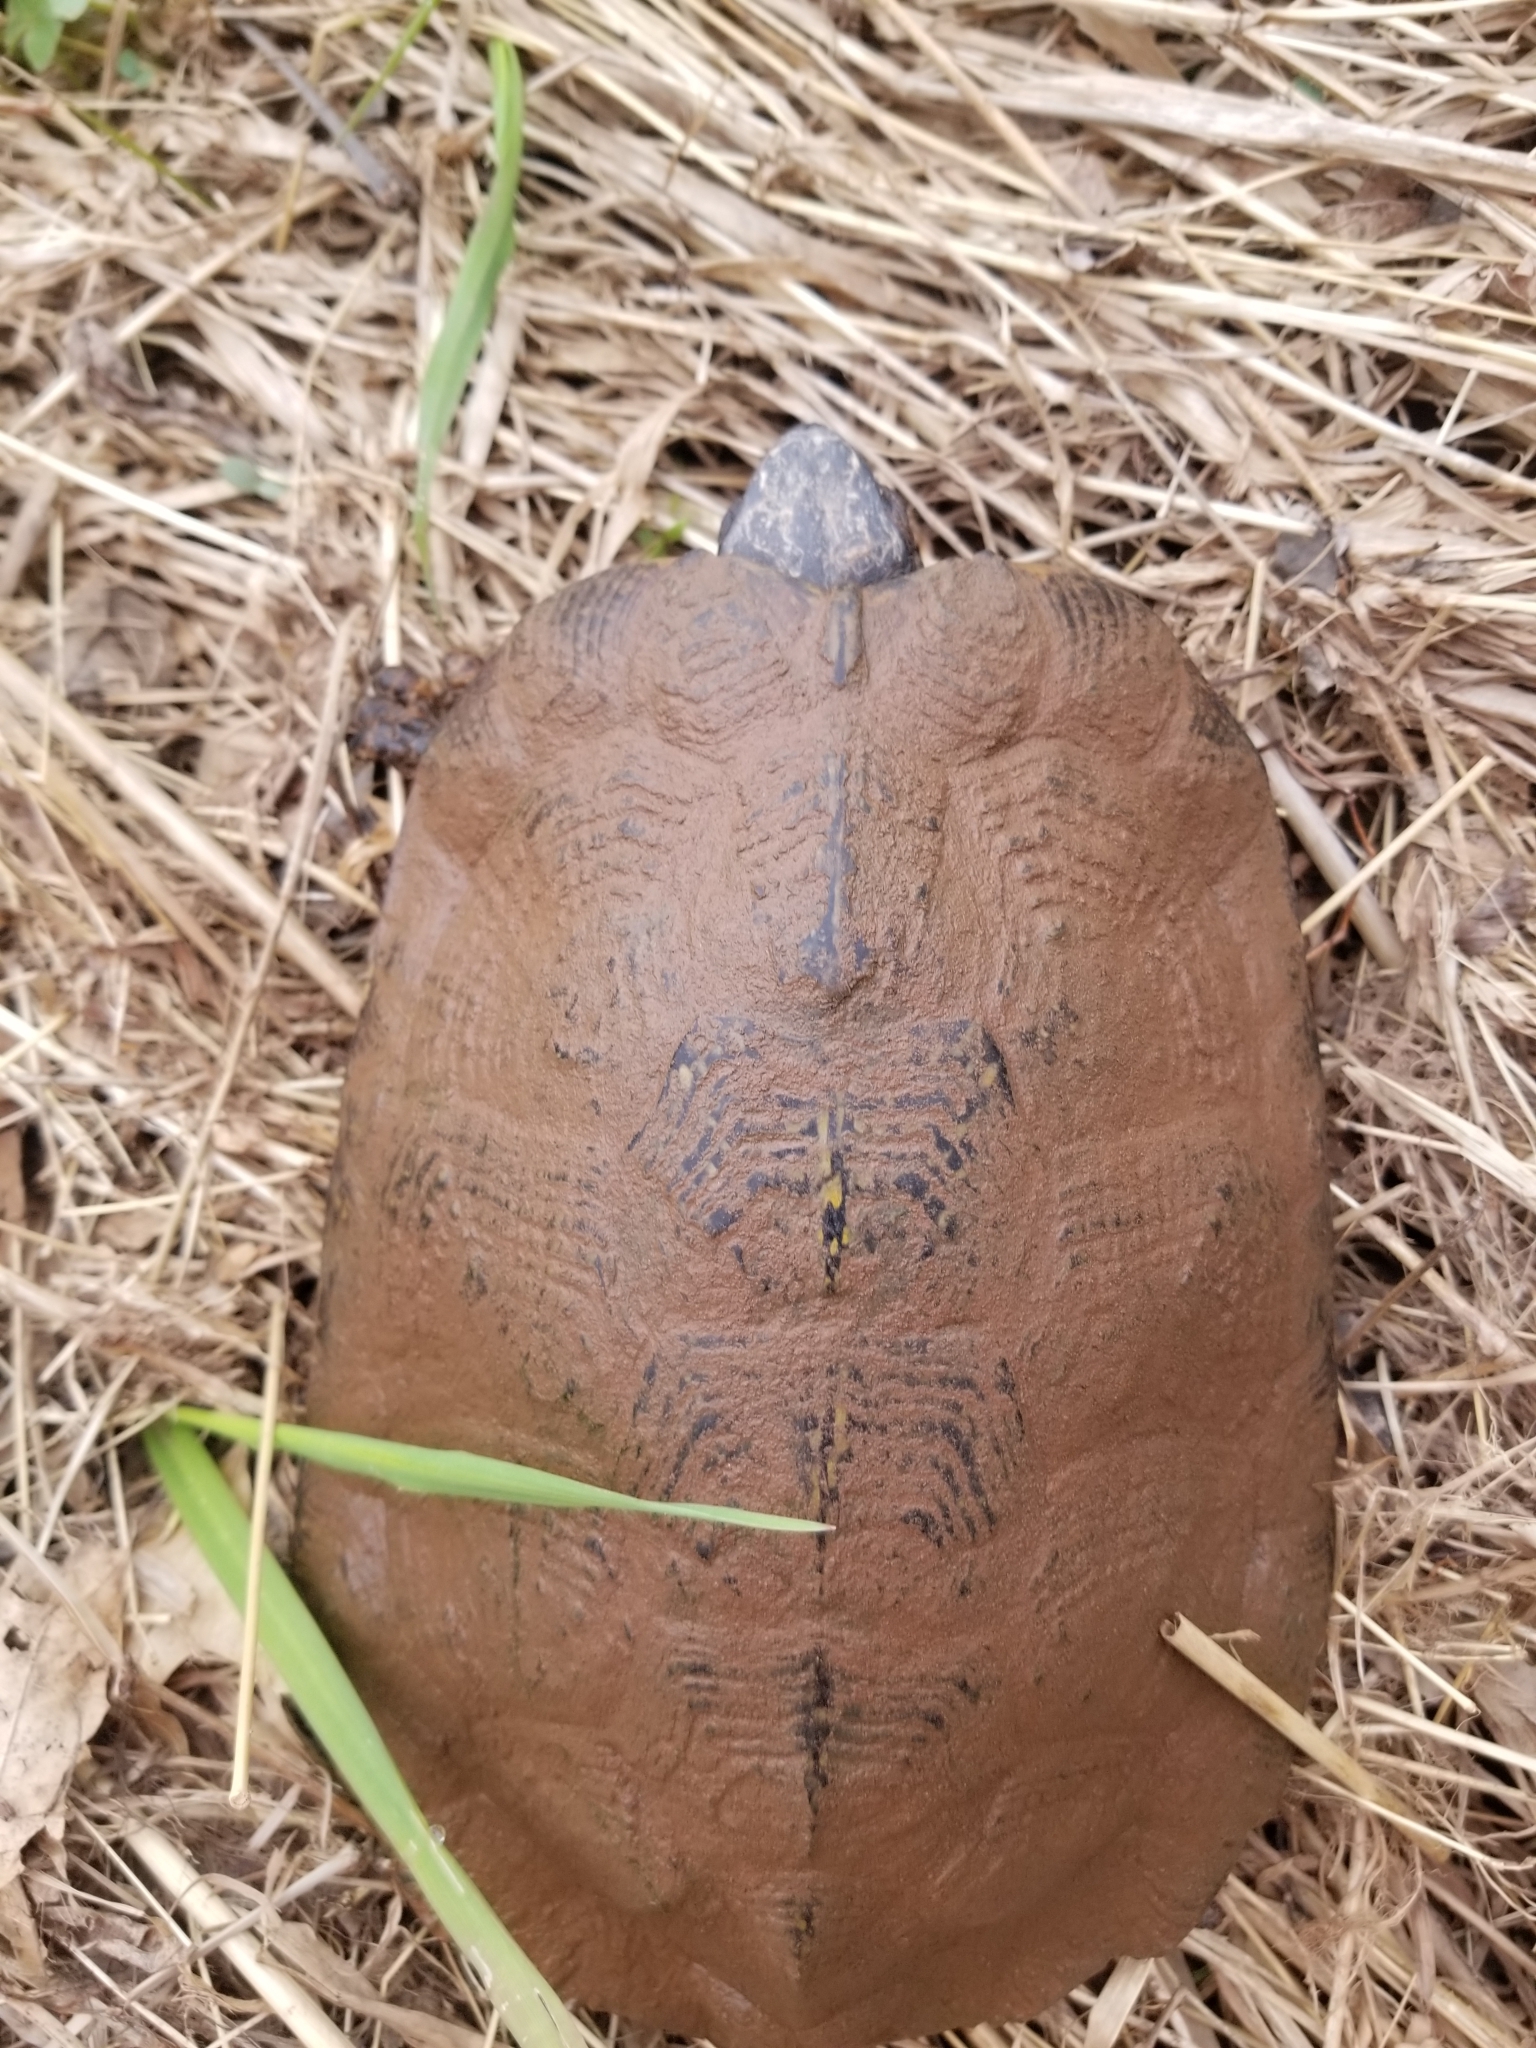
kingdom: Animalia
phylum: Chordata
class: Testudines
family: Emydidae
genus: Glyptemys
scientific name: Glyptemys insculpta
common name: Wood turtle
